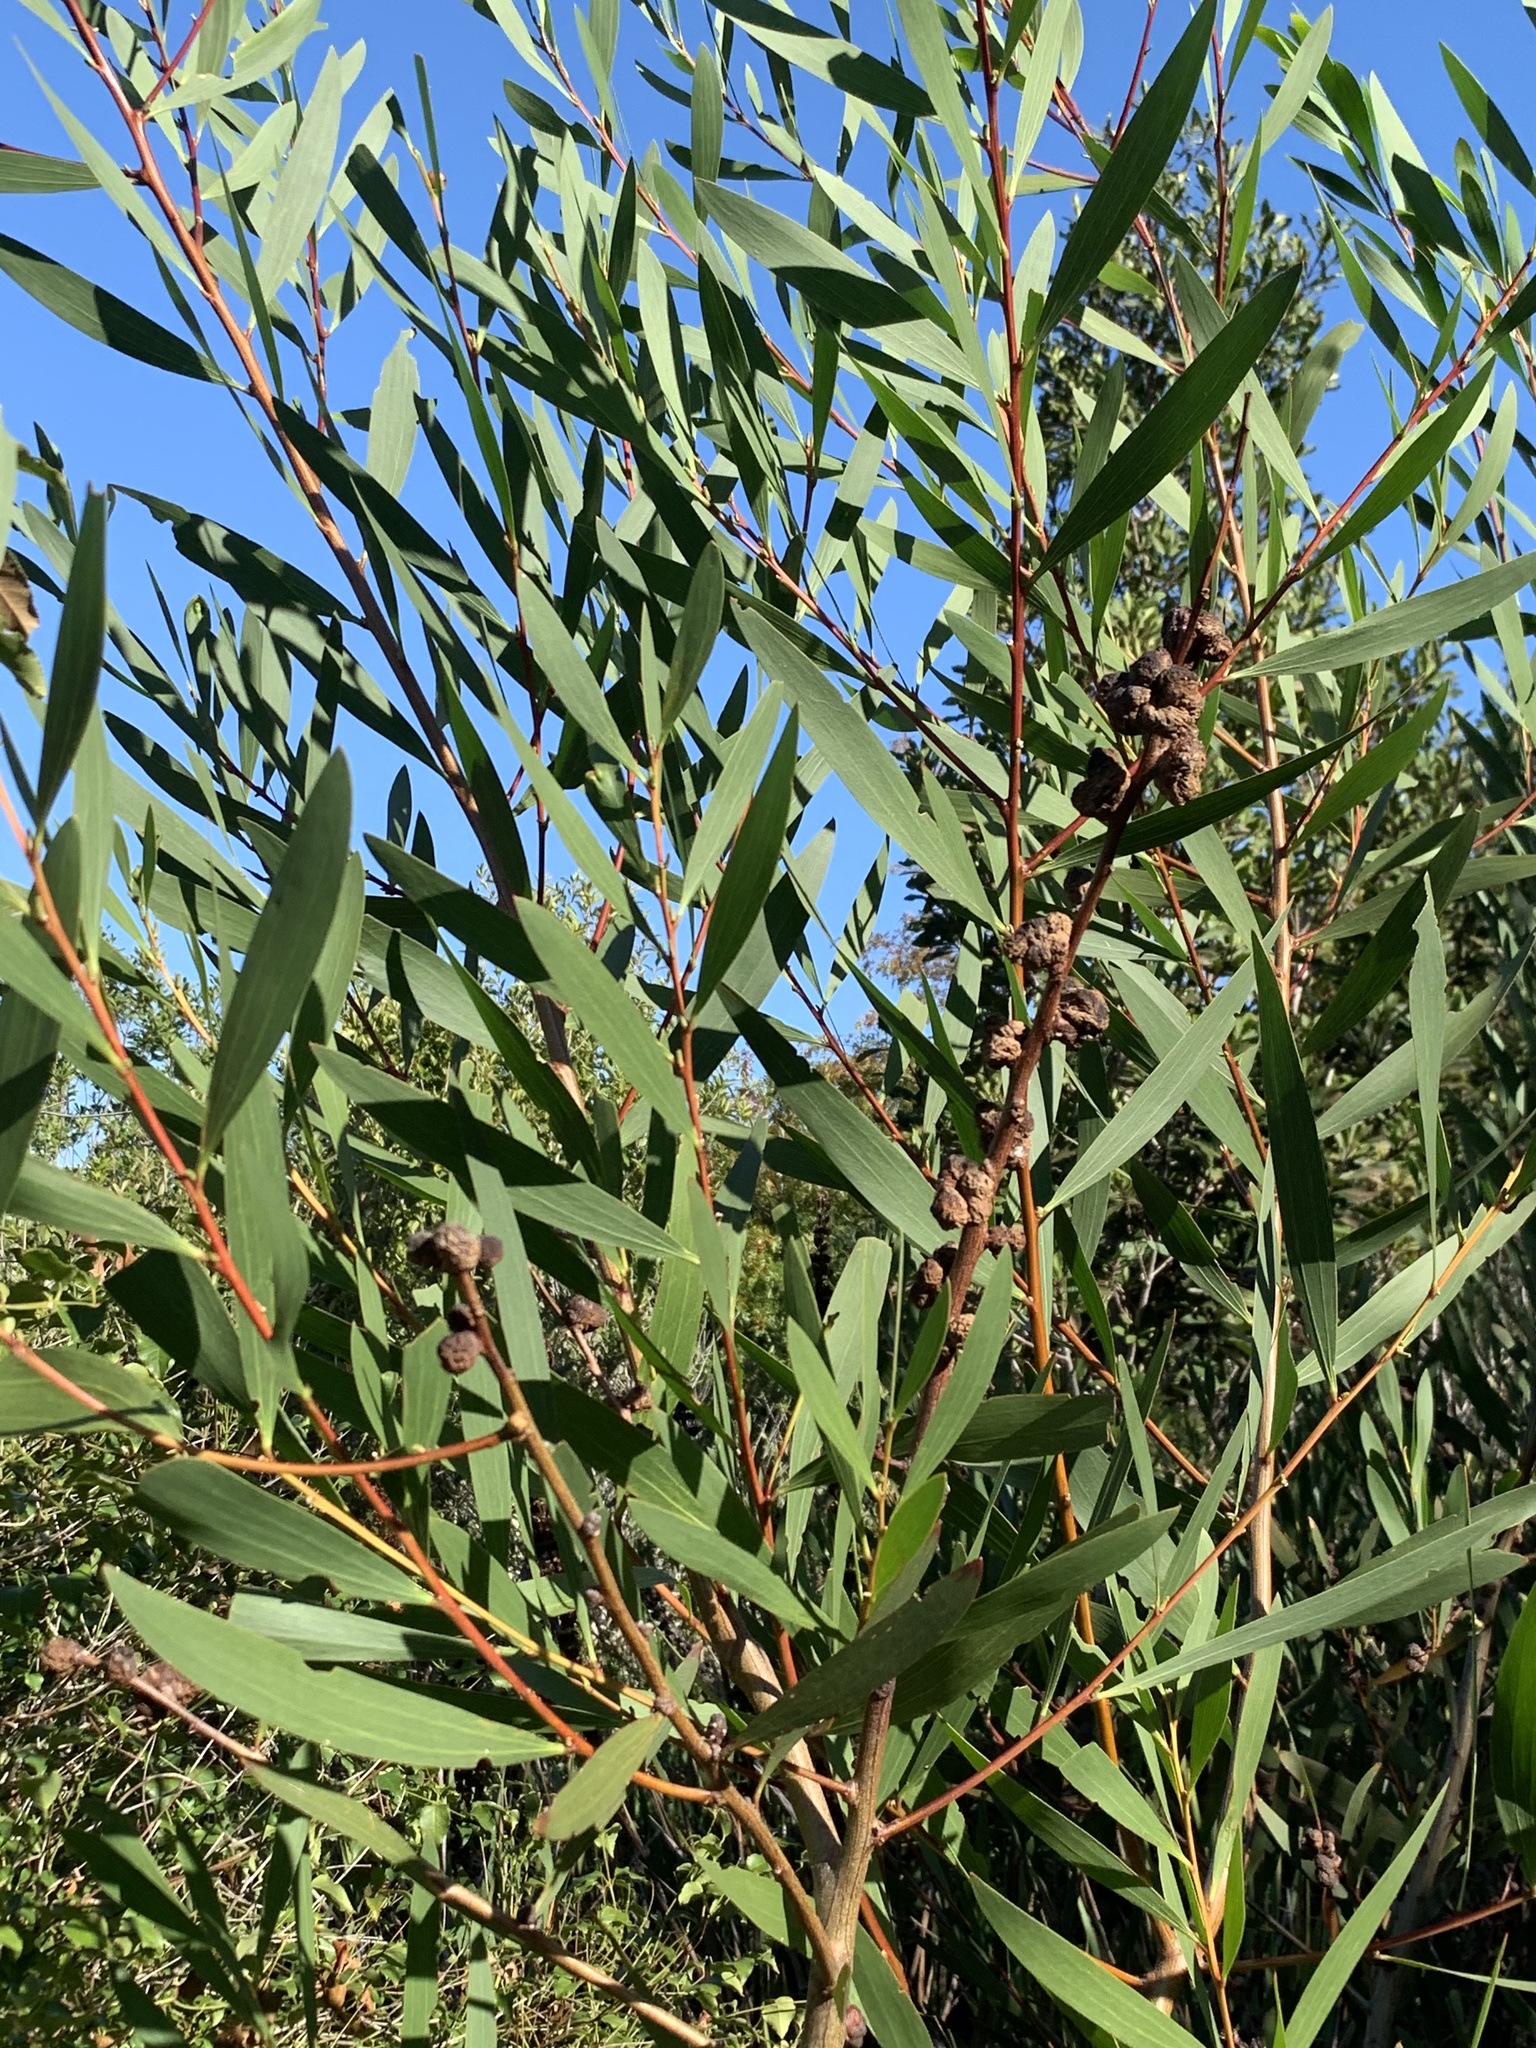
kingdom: Plantae
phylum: Tracheophyta
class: Magnoliopsida
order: Fabales
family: Fabaceae
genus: Acacia
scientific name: Acacia viscidula
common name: Sticky wattle
